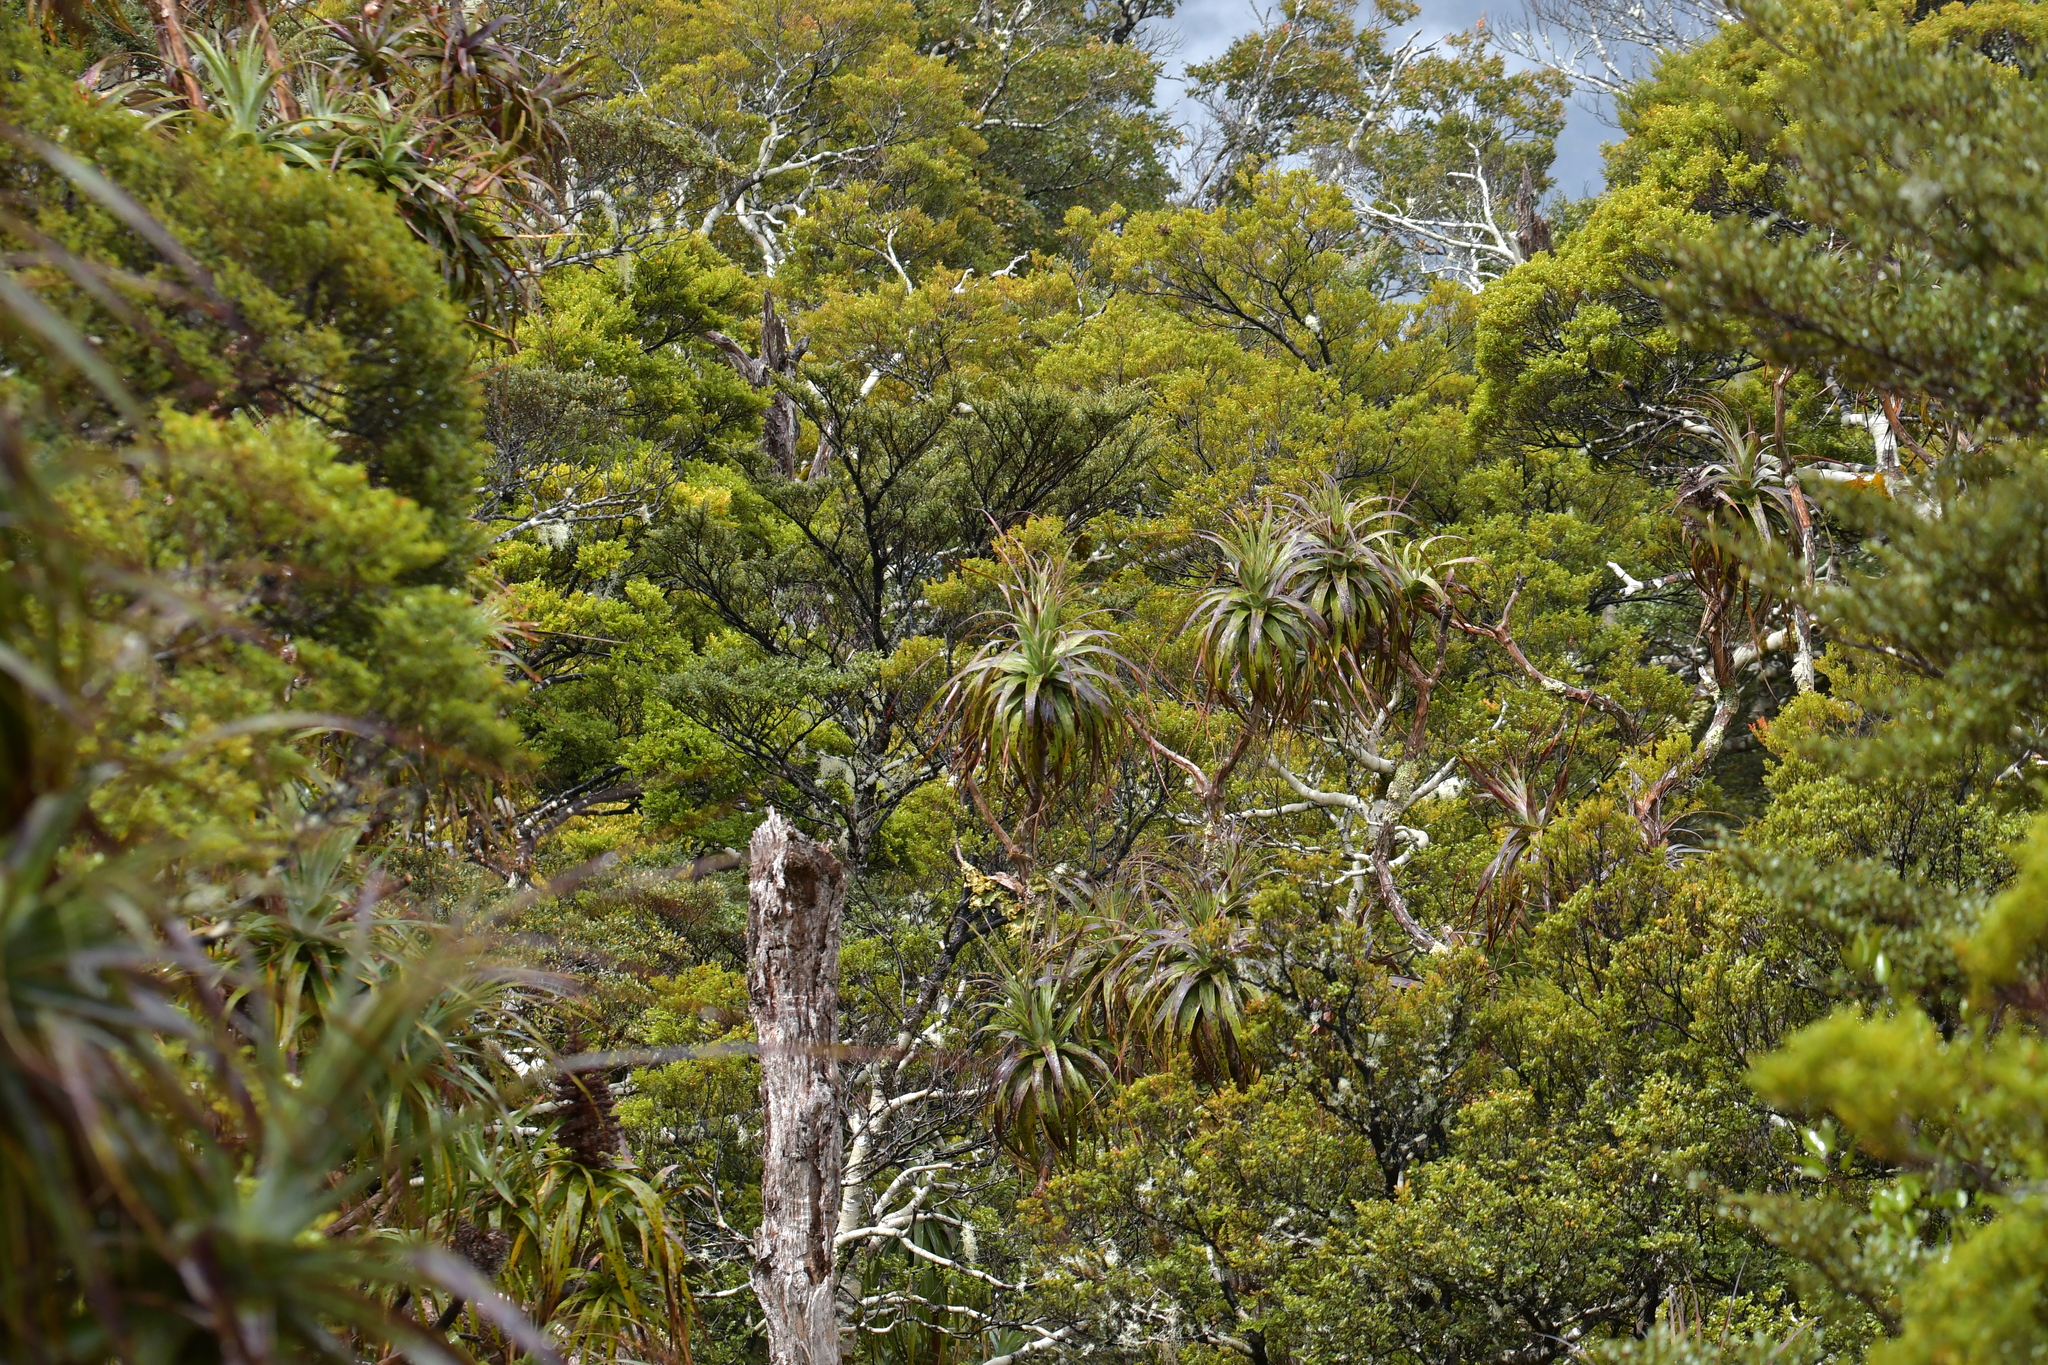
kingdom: Plantae
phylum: Tracheophyta
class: Magnoliopsida
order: Ericales
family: Ericaceae
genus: Dracophyllum
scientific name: Dracophyllum traversii
